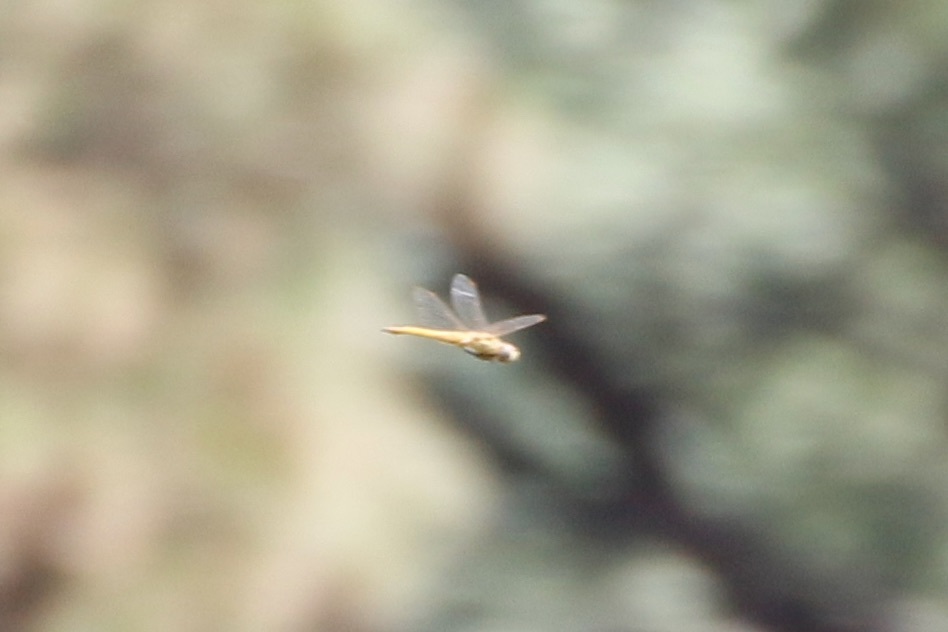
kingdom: Animalia
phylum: Arthropoda
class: Insecta
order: Odonata
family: Libellulidae
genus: Pantala
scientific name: Pantala flavescens
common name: Wandering glider
